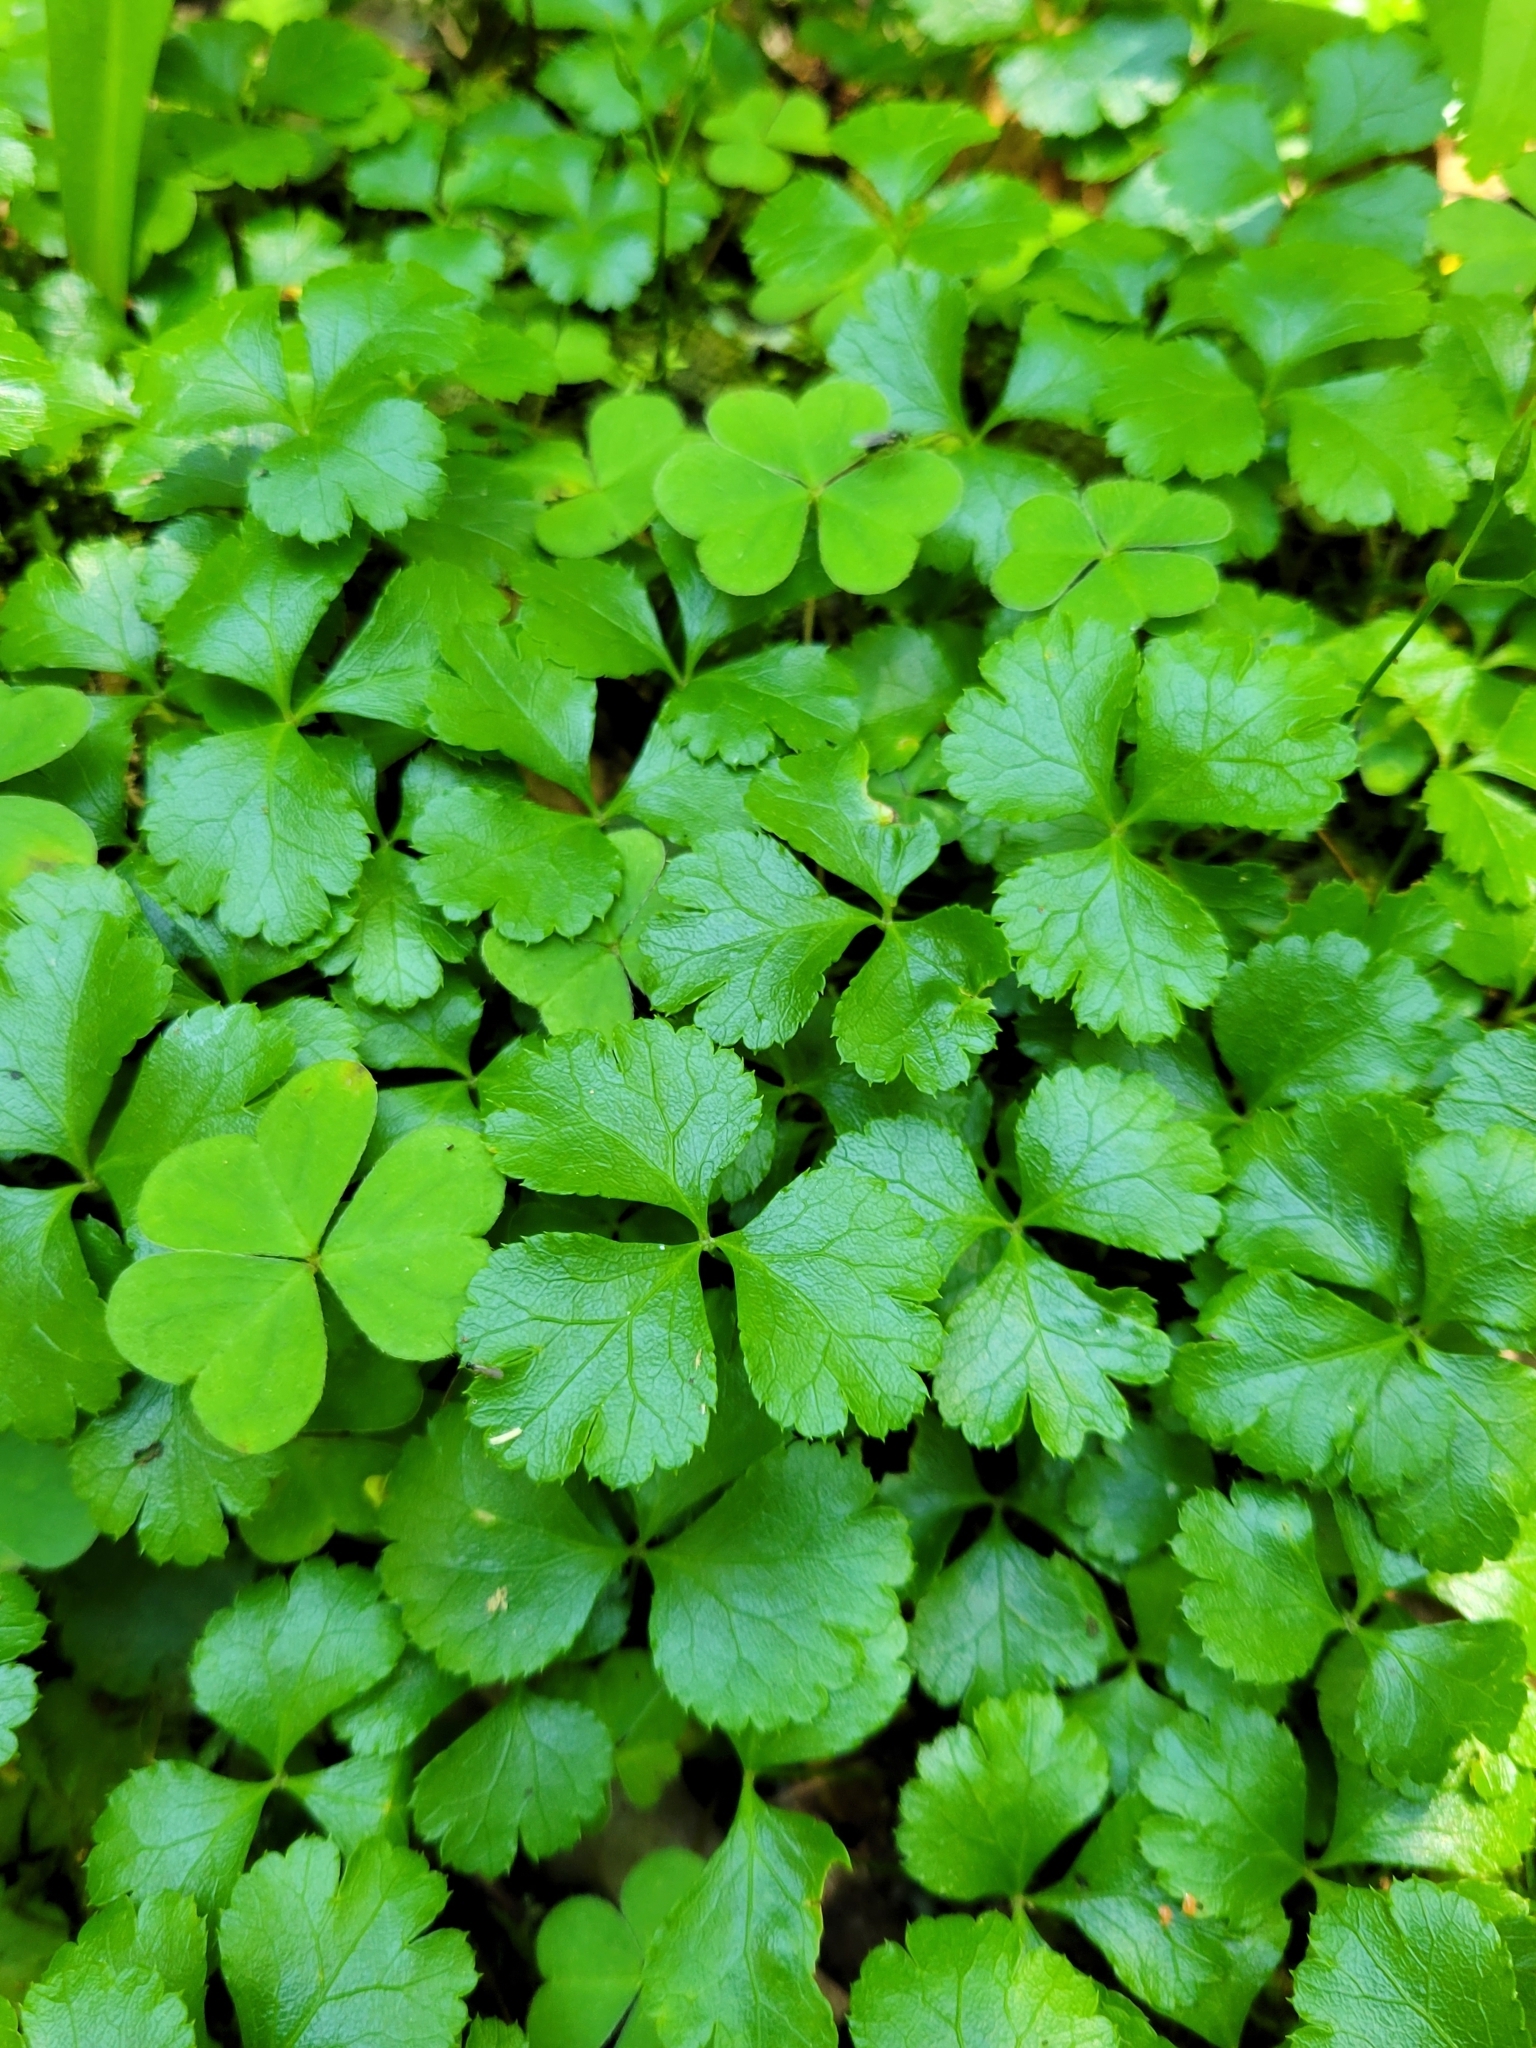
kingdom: Plantae
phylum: Tracheophyta
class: Magnoliopsida
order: Ranunculales
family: Ranunculaceae
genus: Coptis
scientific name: Coptis trifolia
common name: Canker-root
